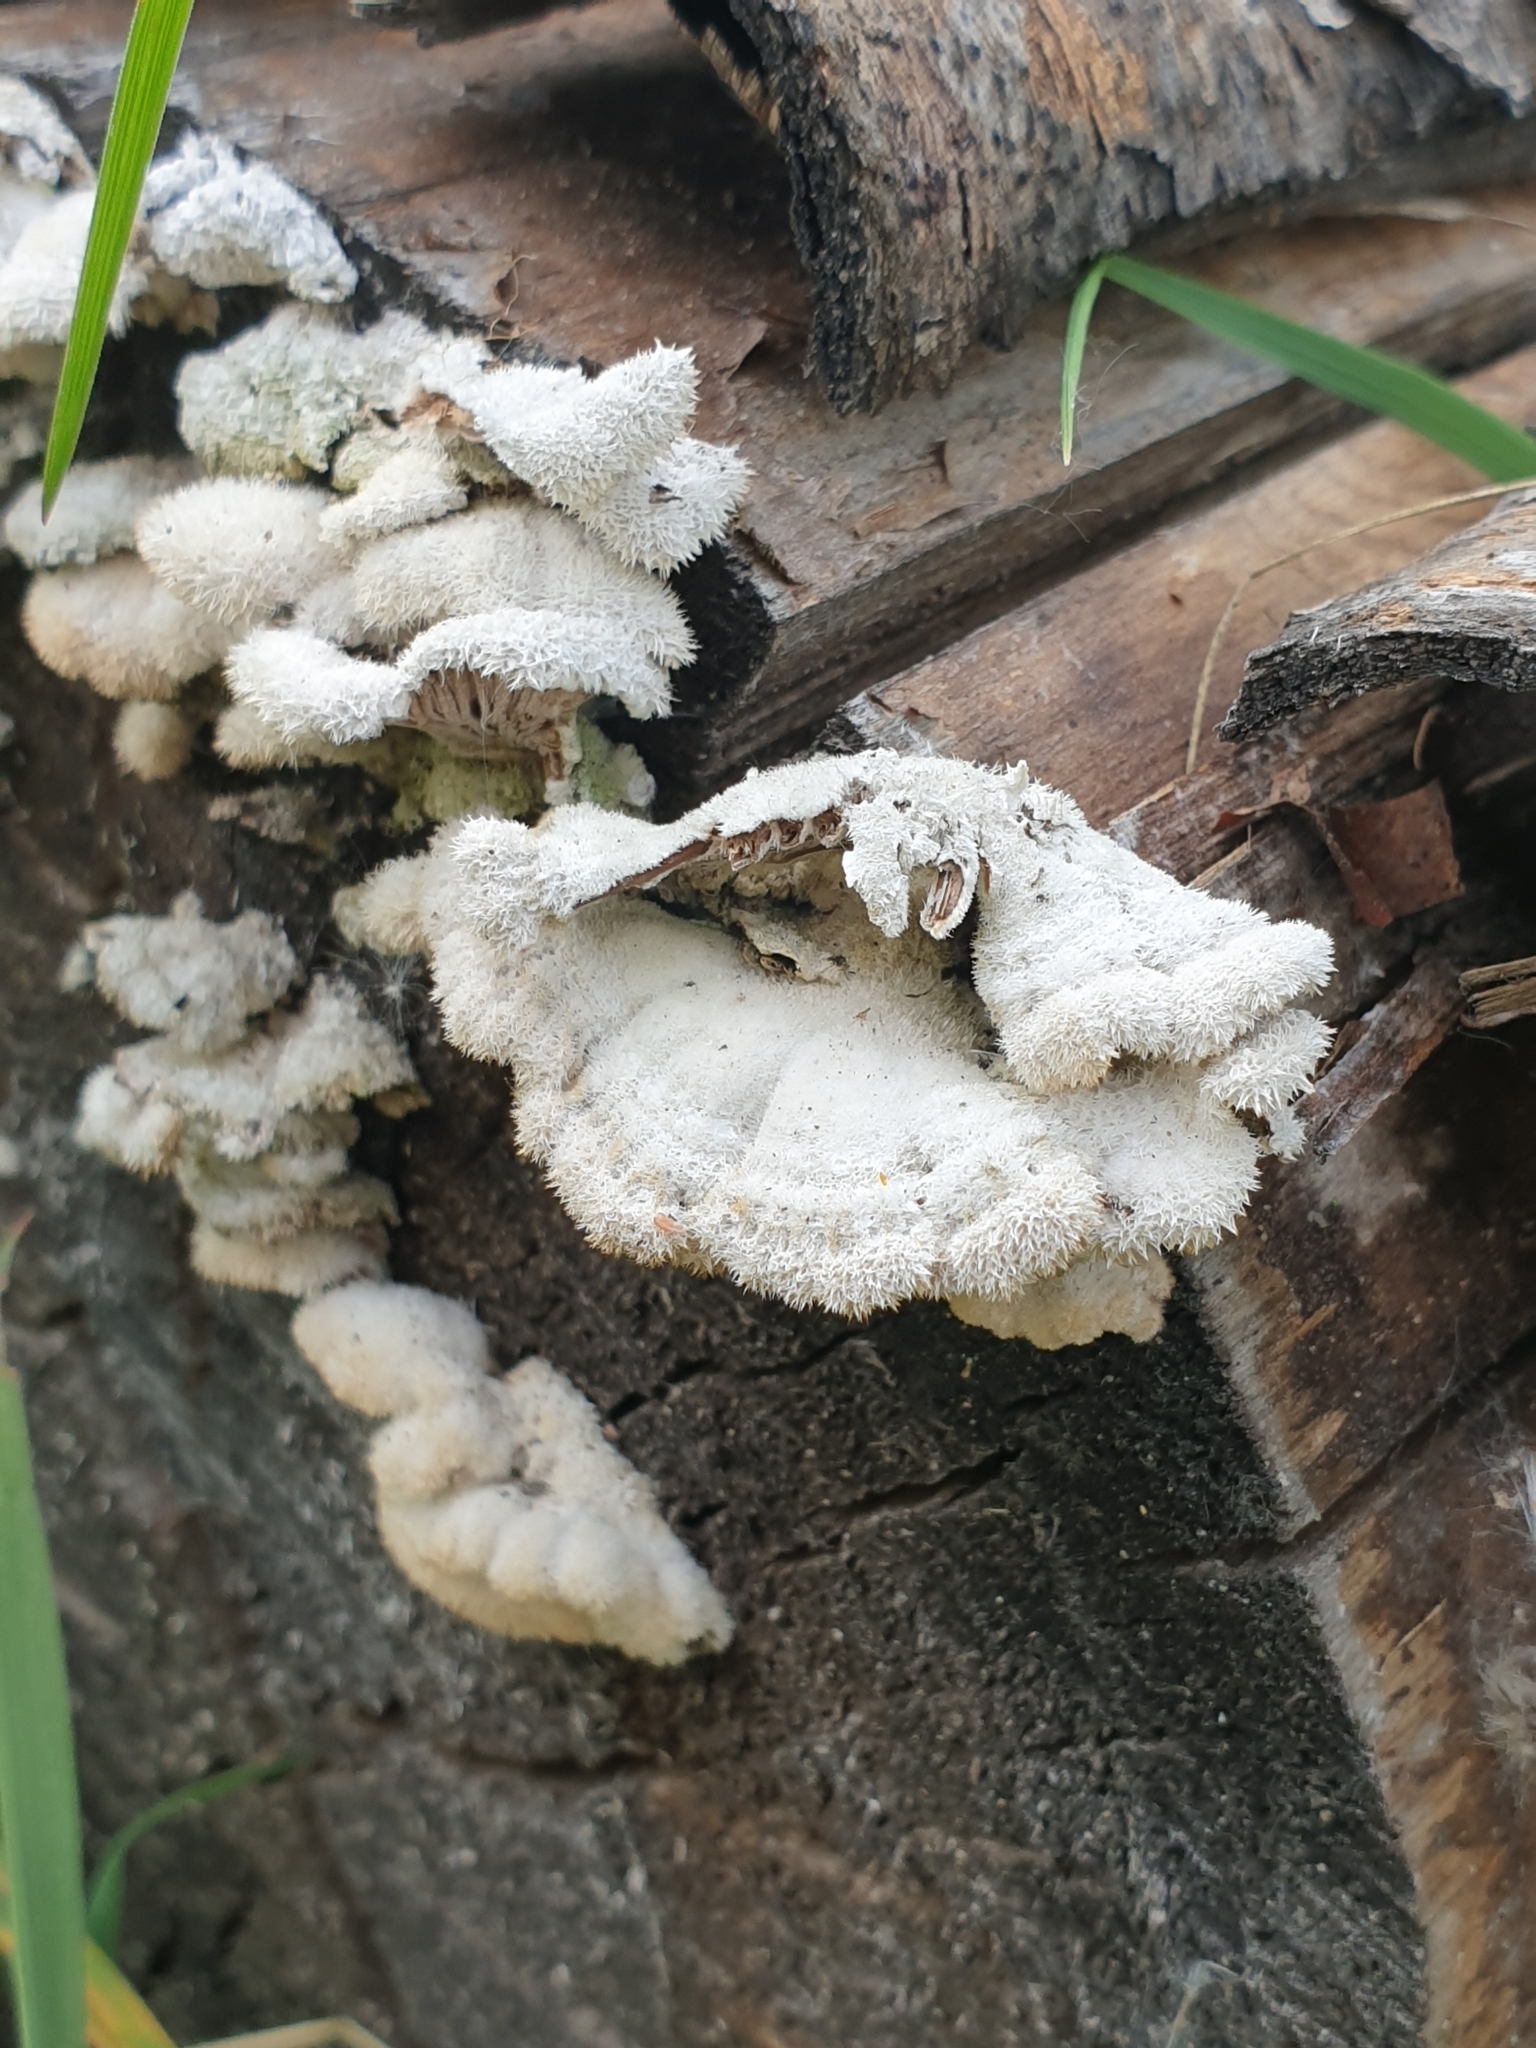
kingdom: Fungi
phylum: Basidiomycota
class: Agaricomycetes
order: Agaricales
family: Schizophyllaceae
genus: Schizophyllum
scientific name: Schizophyllum commune
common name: Common porecrust
